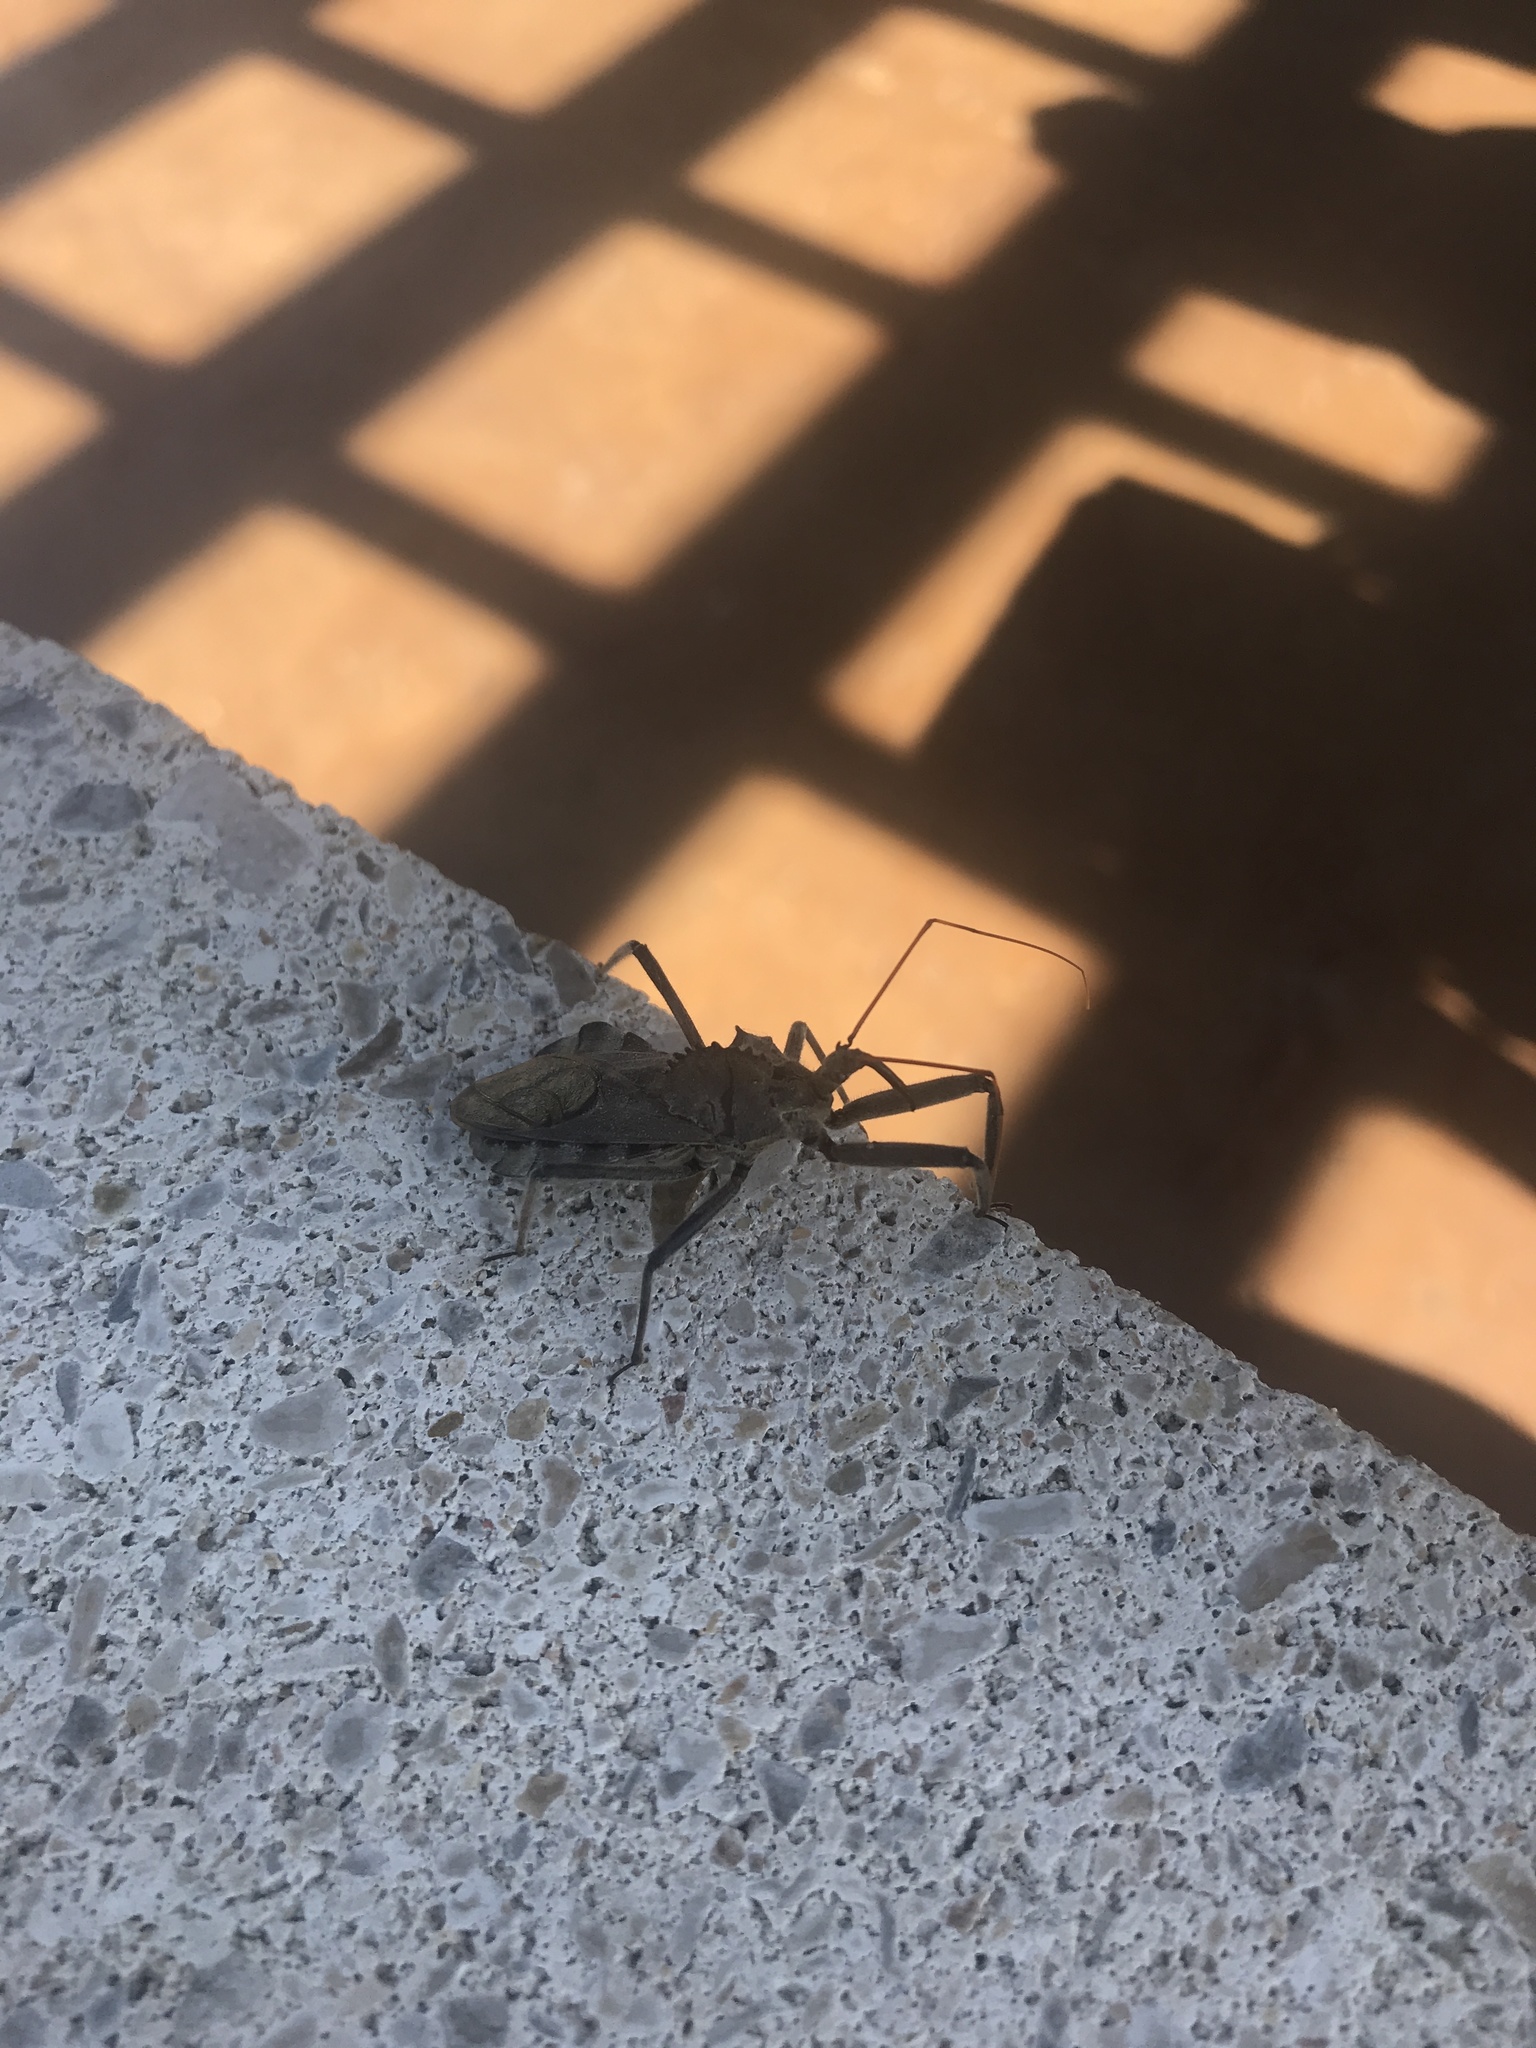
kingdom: Animalia
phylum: Arthropoda
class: Insecta
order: Hemiptera
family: Reduviidae
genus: Arilus
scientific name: Arilus cristatus
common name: North american wheel bug
